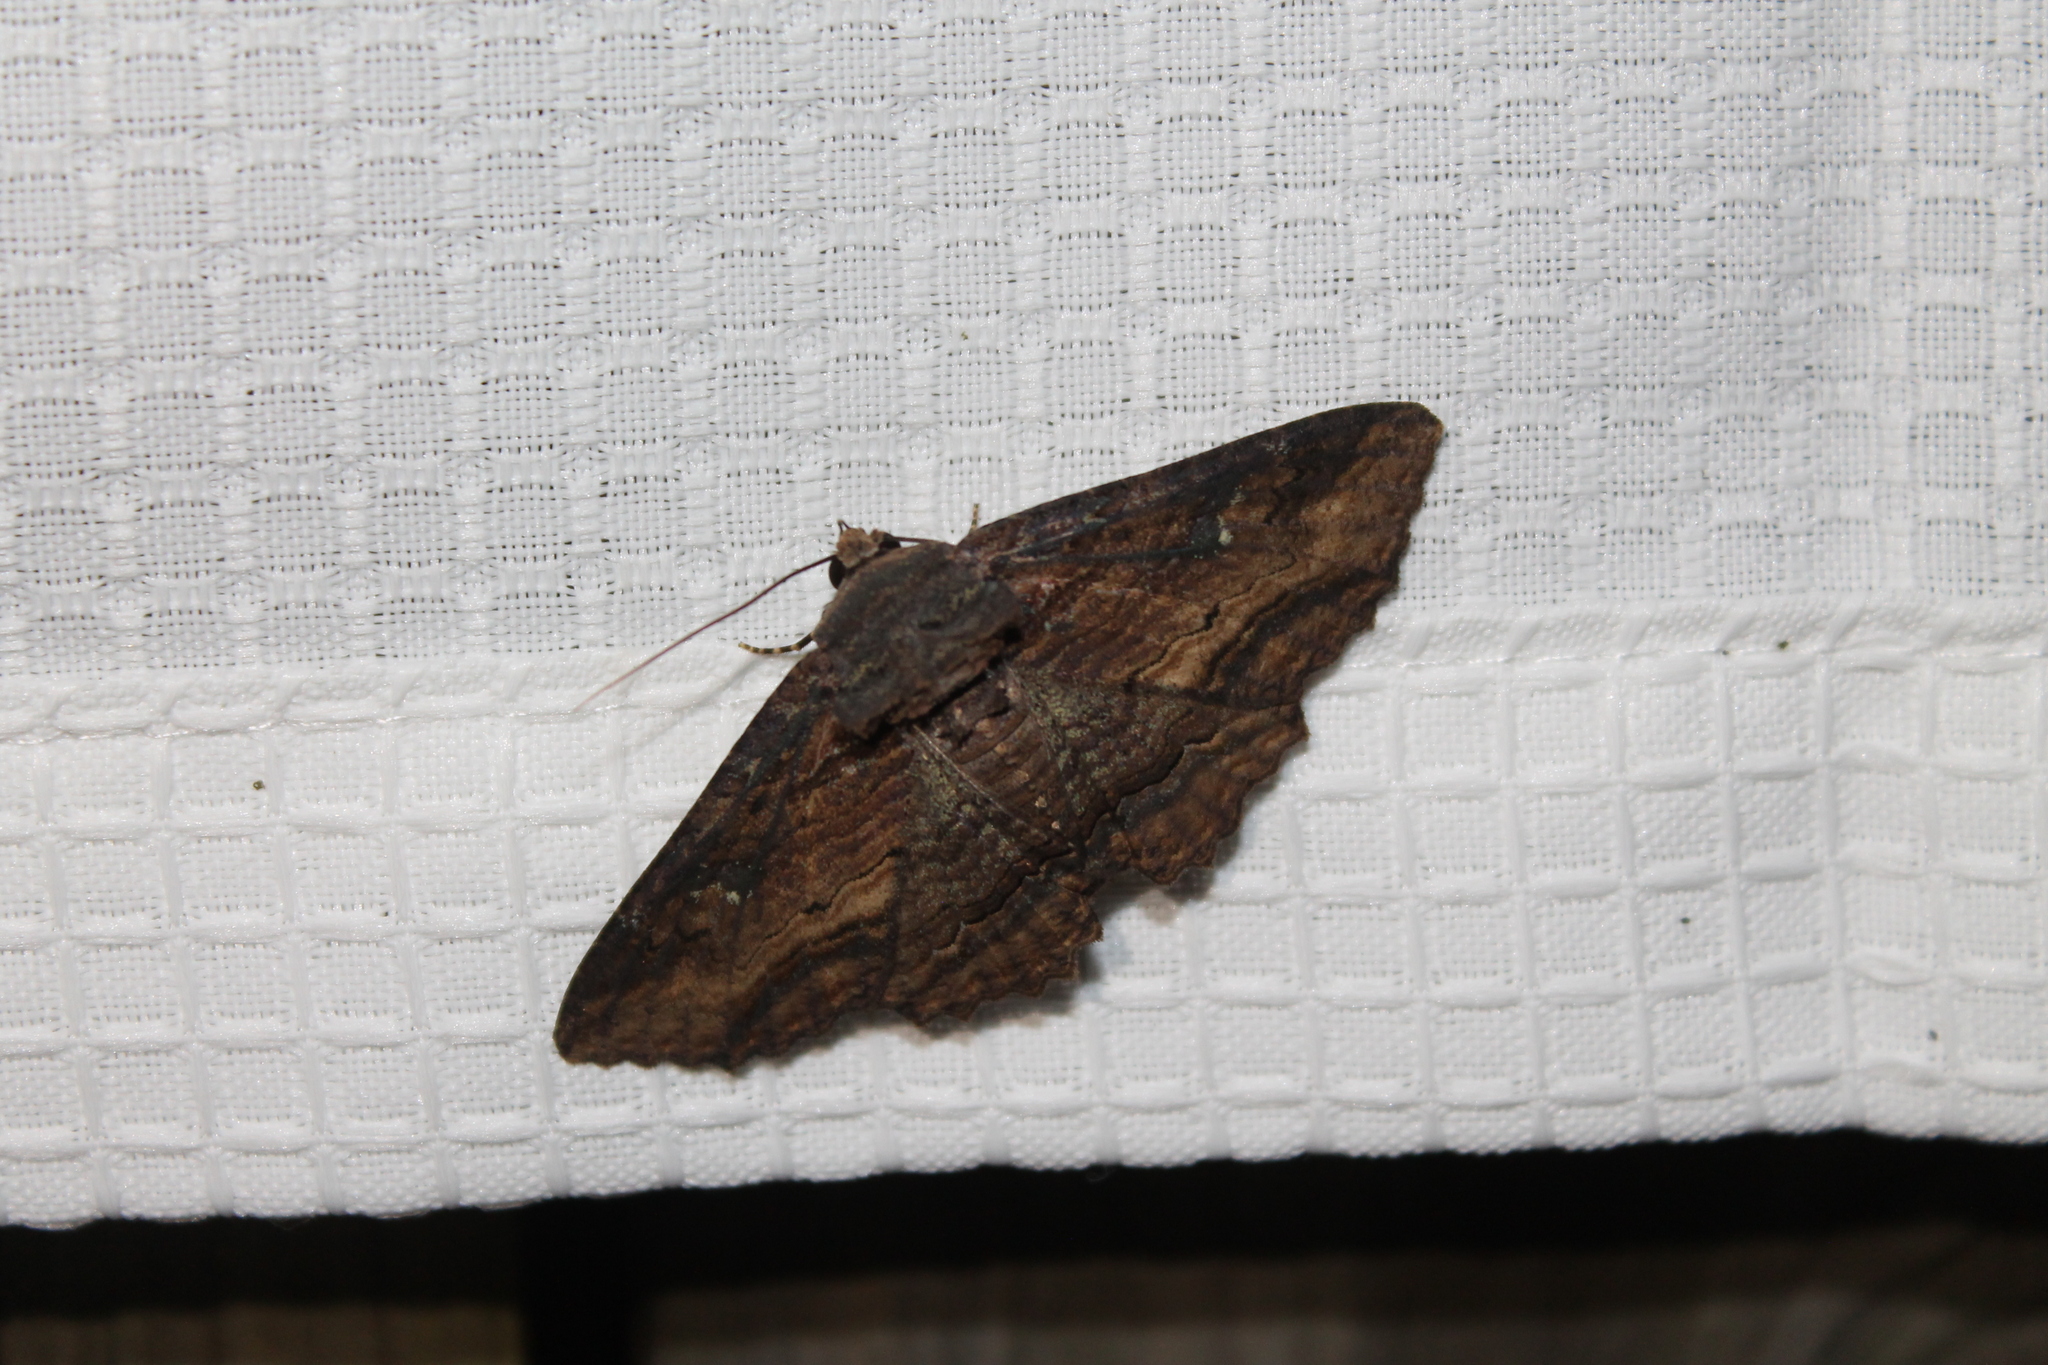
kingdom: Animalia
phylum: Arthropoda
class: Insecta
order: Lepidoptera
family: Erebidae
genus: Zale
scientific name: Zale lunata
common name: Lunate zale moth
